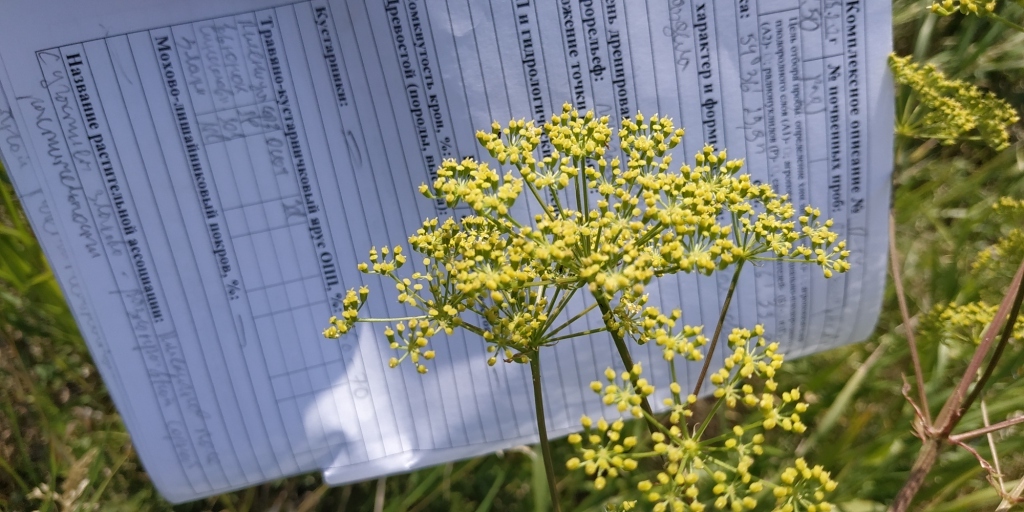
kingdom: Plantae
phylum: Tracheophyta
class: Magnoliopsida
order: Apiales
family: Apiaceae
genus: Silaum
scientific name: Silaum silaus
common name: Pepper-saxifrage
